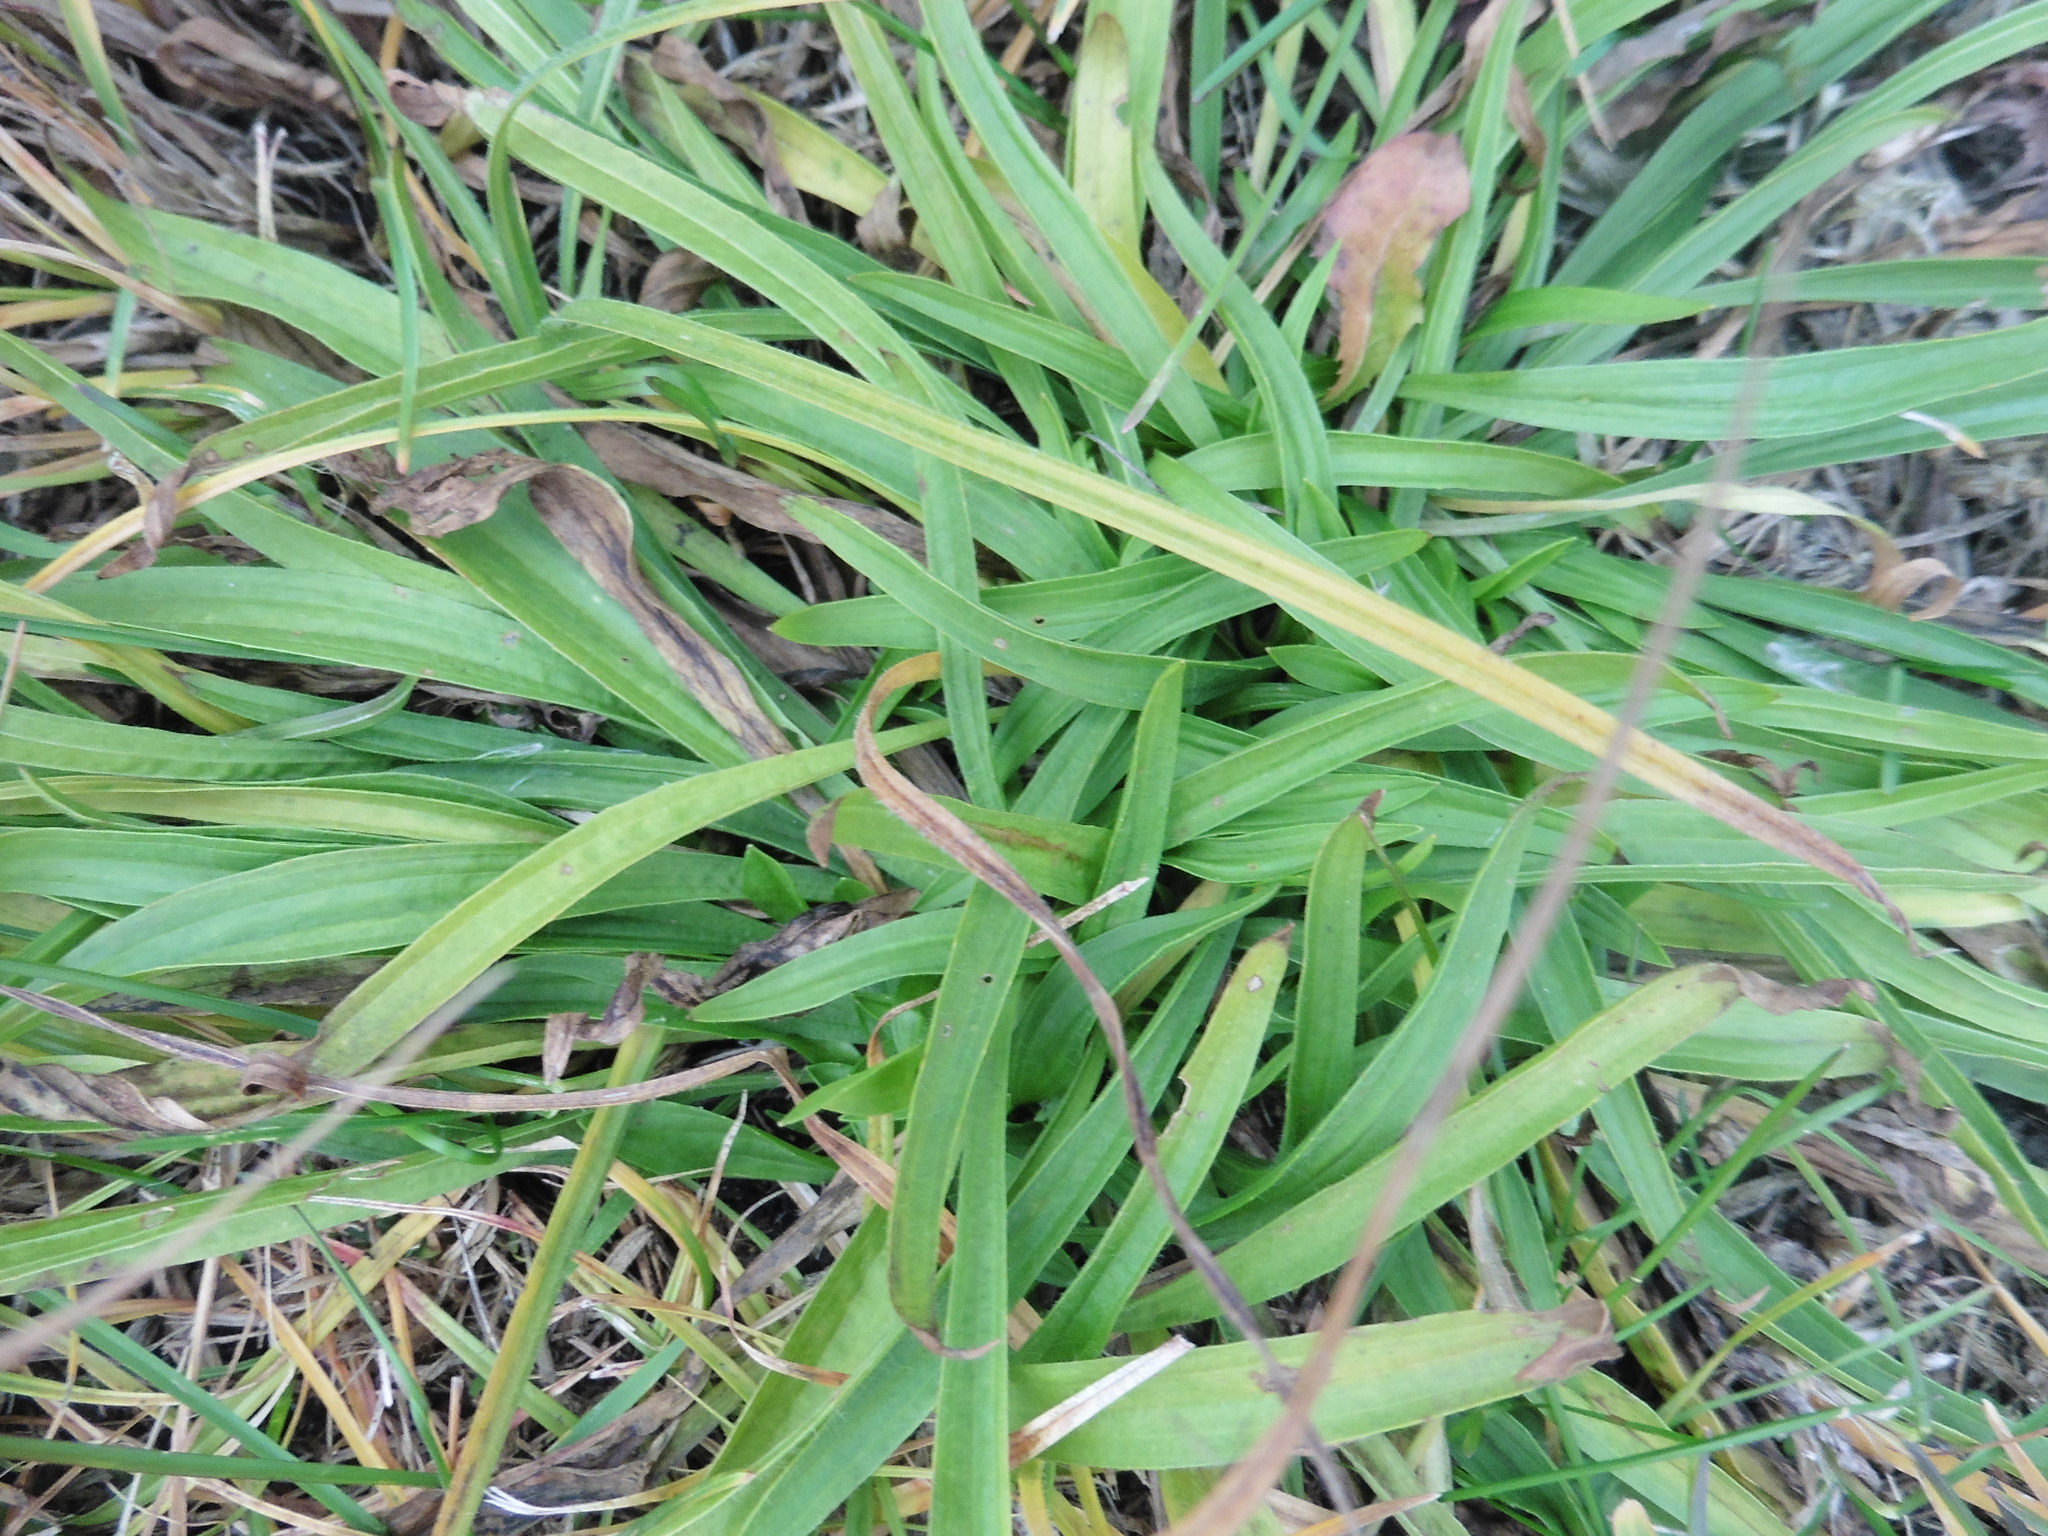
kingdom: Plantae
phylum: Tracheophyta
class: Magnoliopsida
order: Lamiales
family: Plantaginaceae
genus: Plantago
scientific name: Plantago lanceolata
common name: Ribwort plantain
